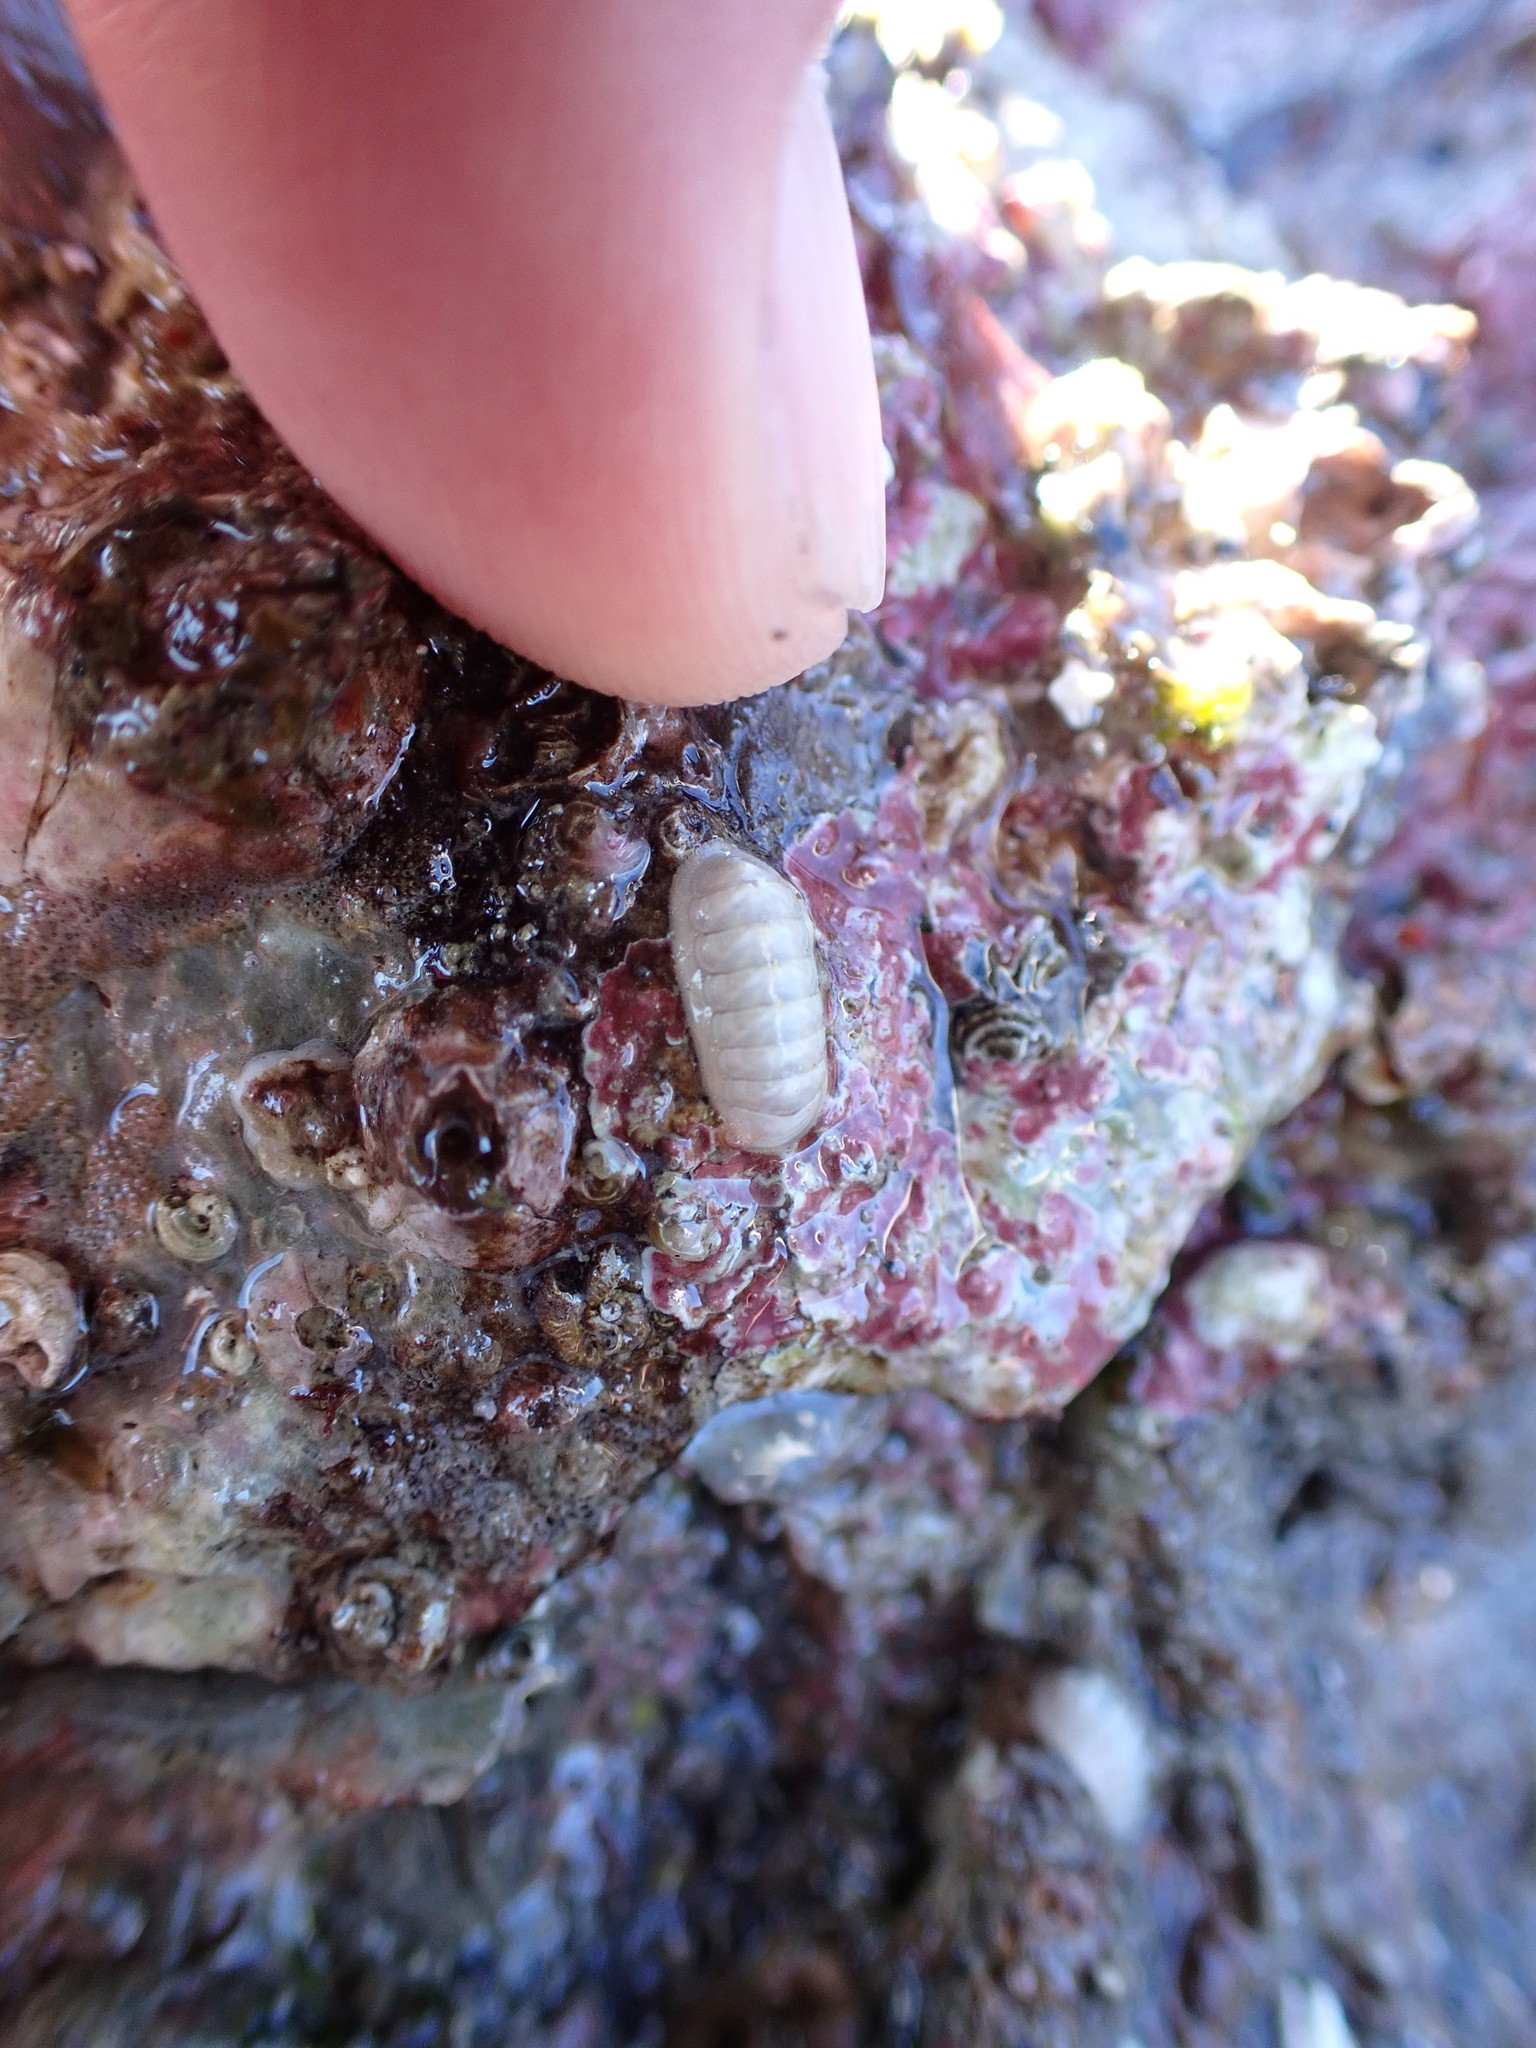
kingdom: Animalia
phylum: Mollusca
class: Polyplacophora
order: Lepidopleurida
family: Leptochitonidae
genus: Leptochiton
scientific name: Leptochiton cascadiensis
